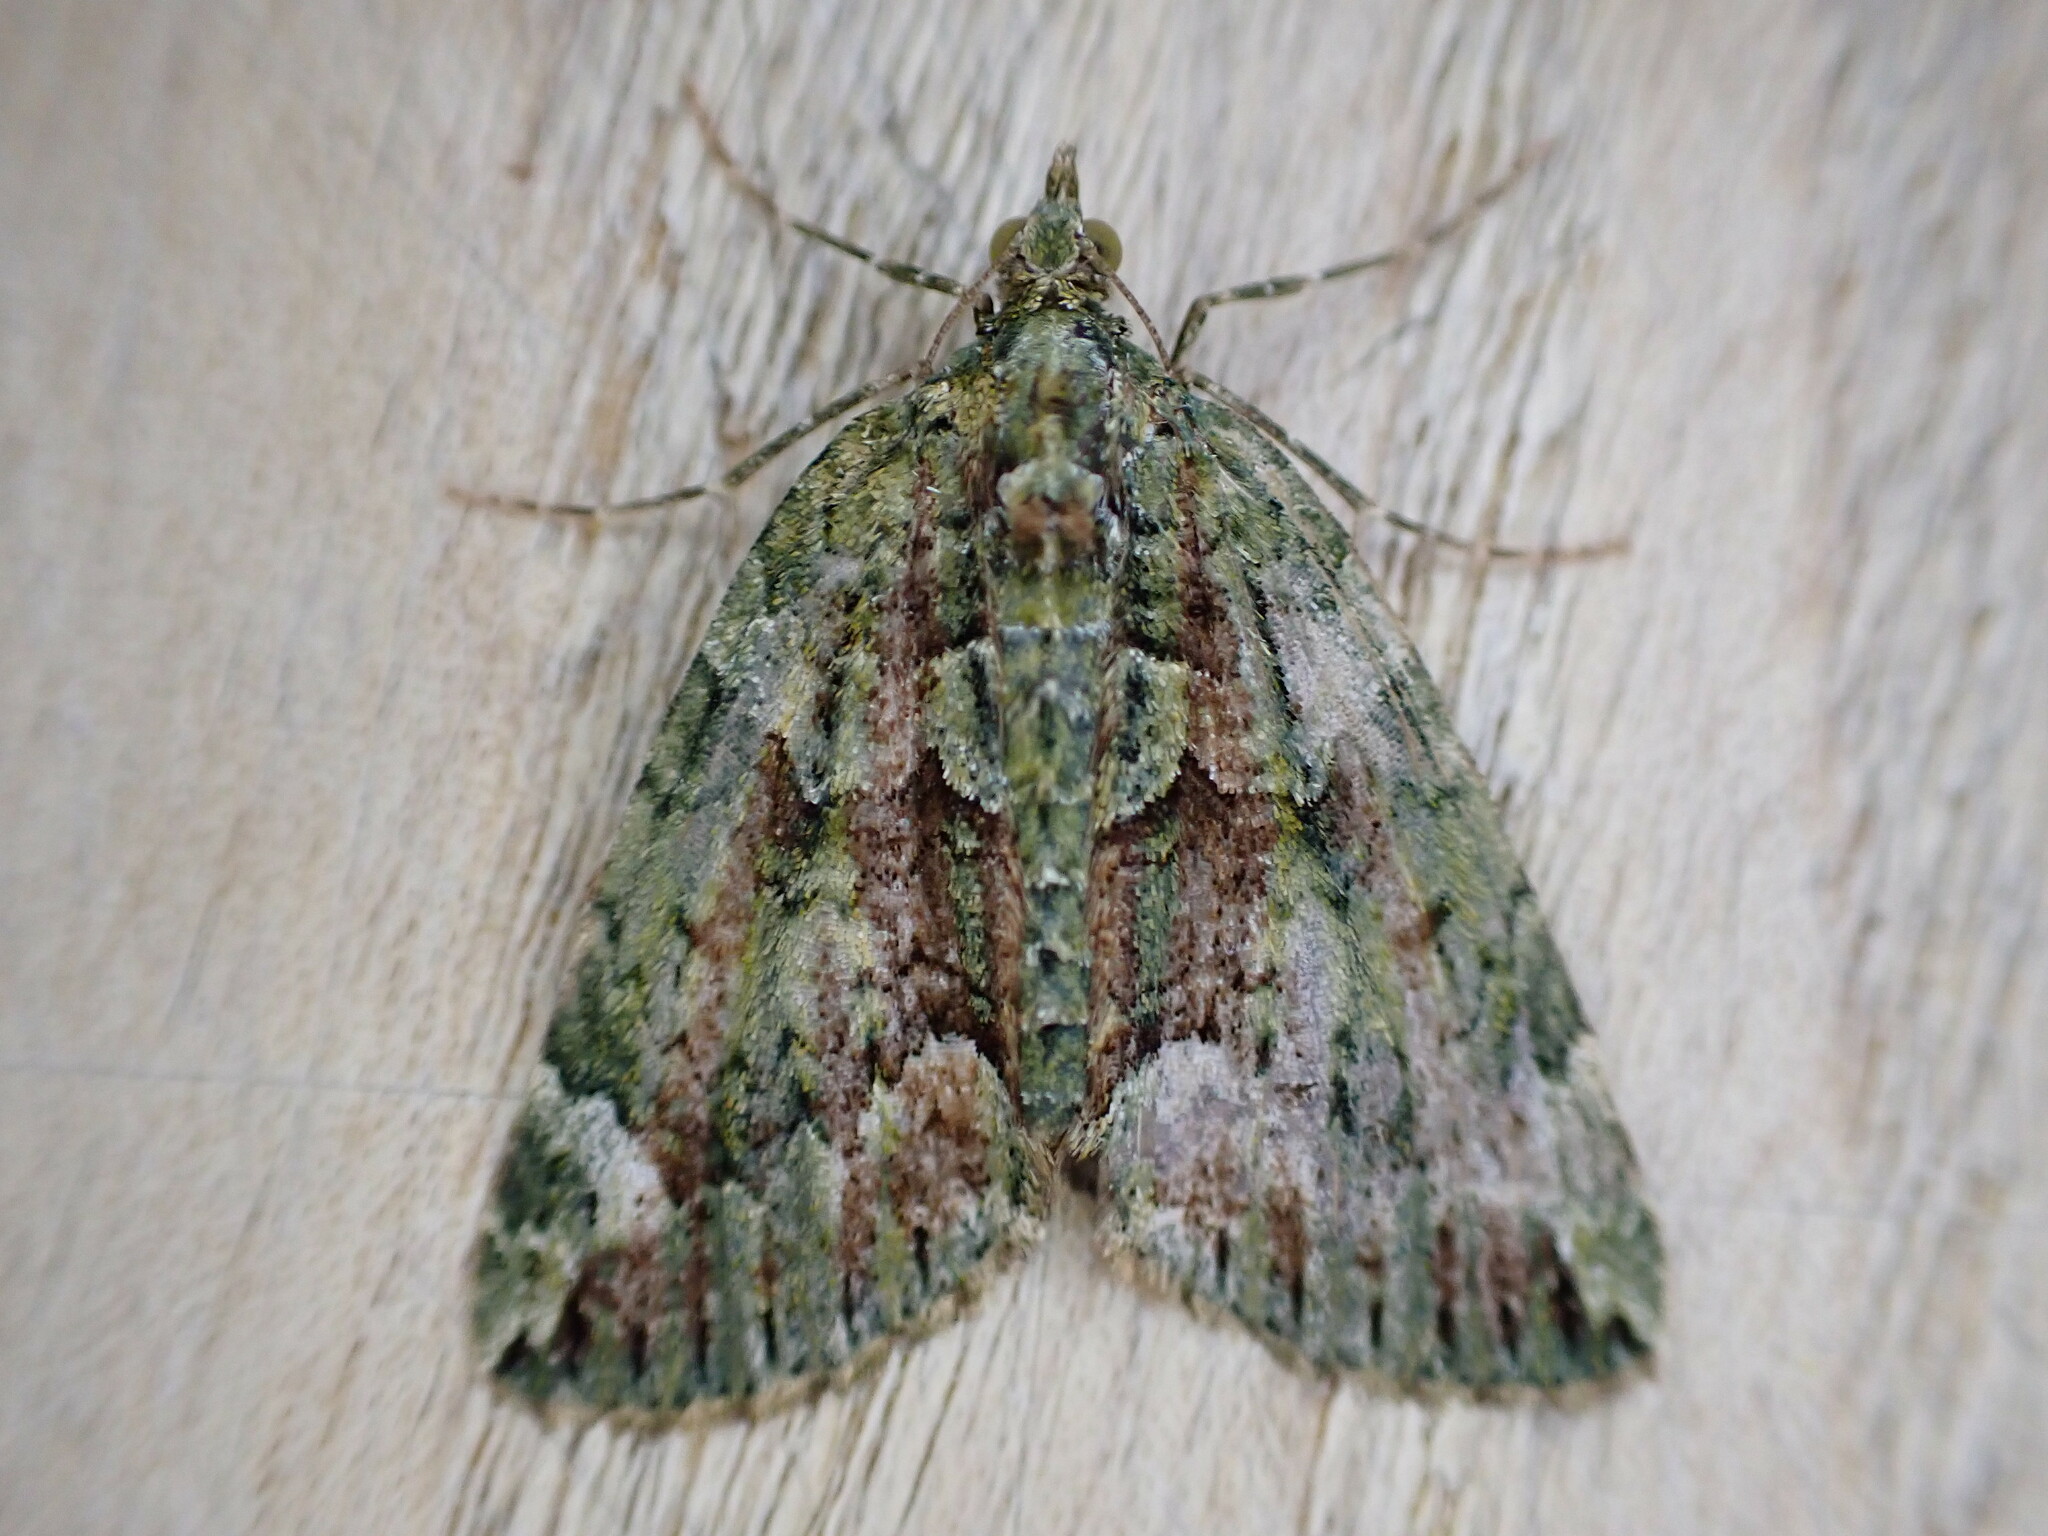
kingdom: Animalia
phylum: Arthropoda
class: Insecta
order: Lepidoptera
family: Geometridae
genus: Chloroclysta
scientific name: Chloroclysta siterata
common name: Red-green carpet
